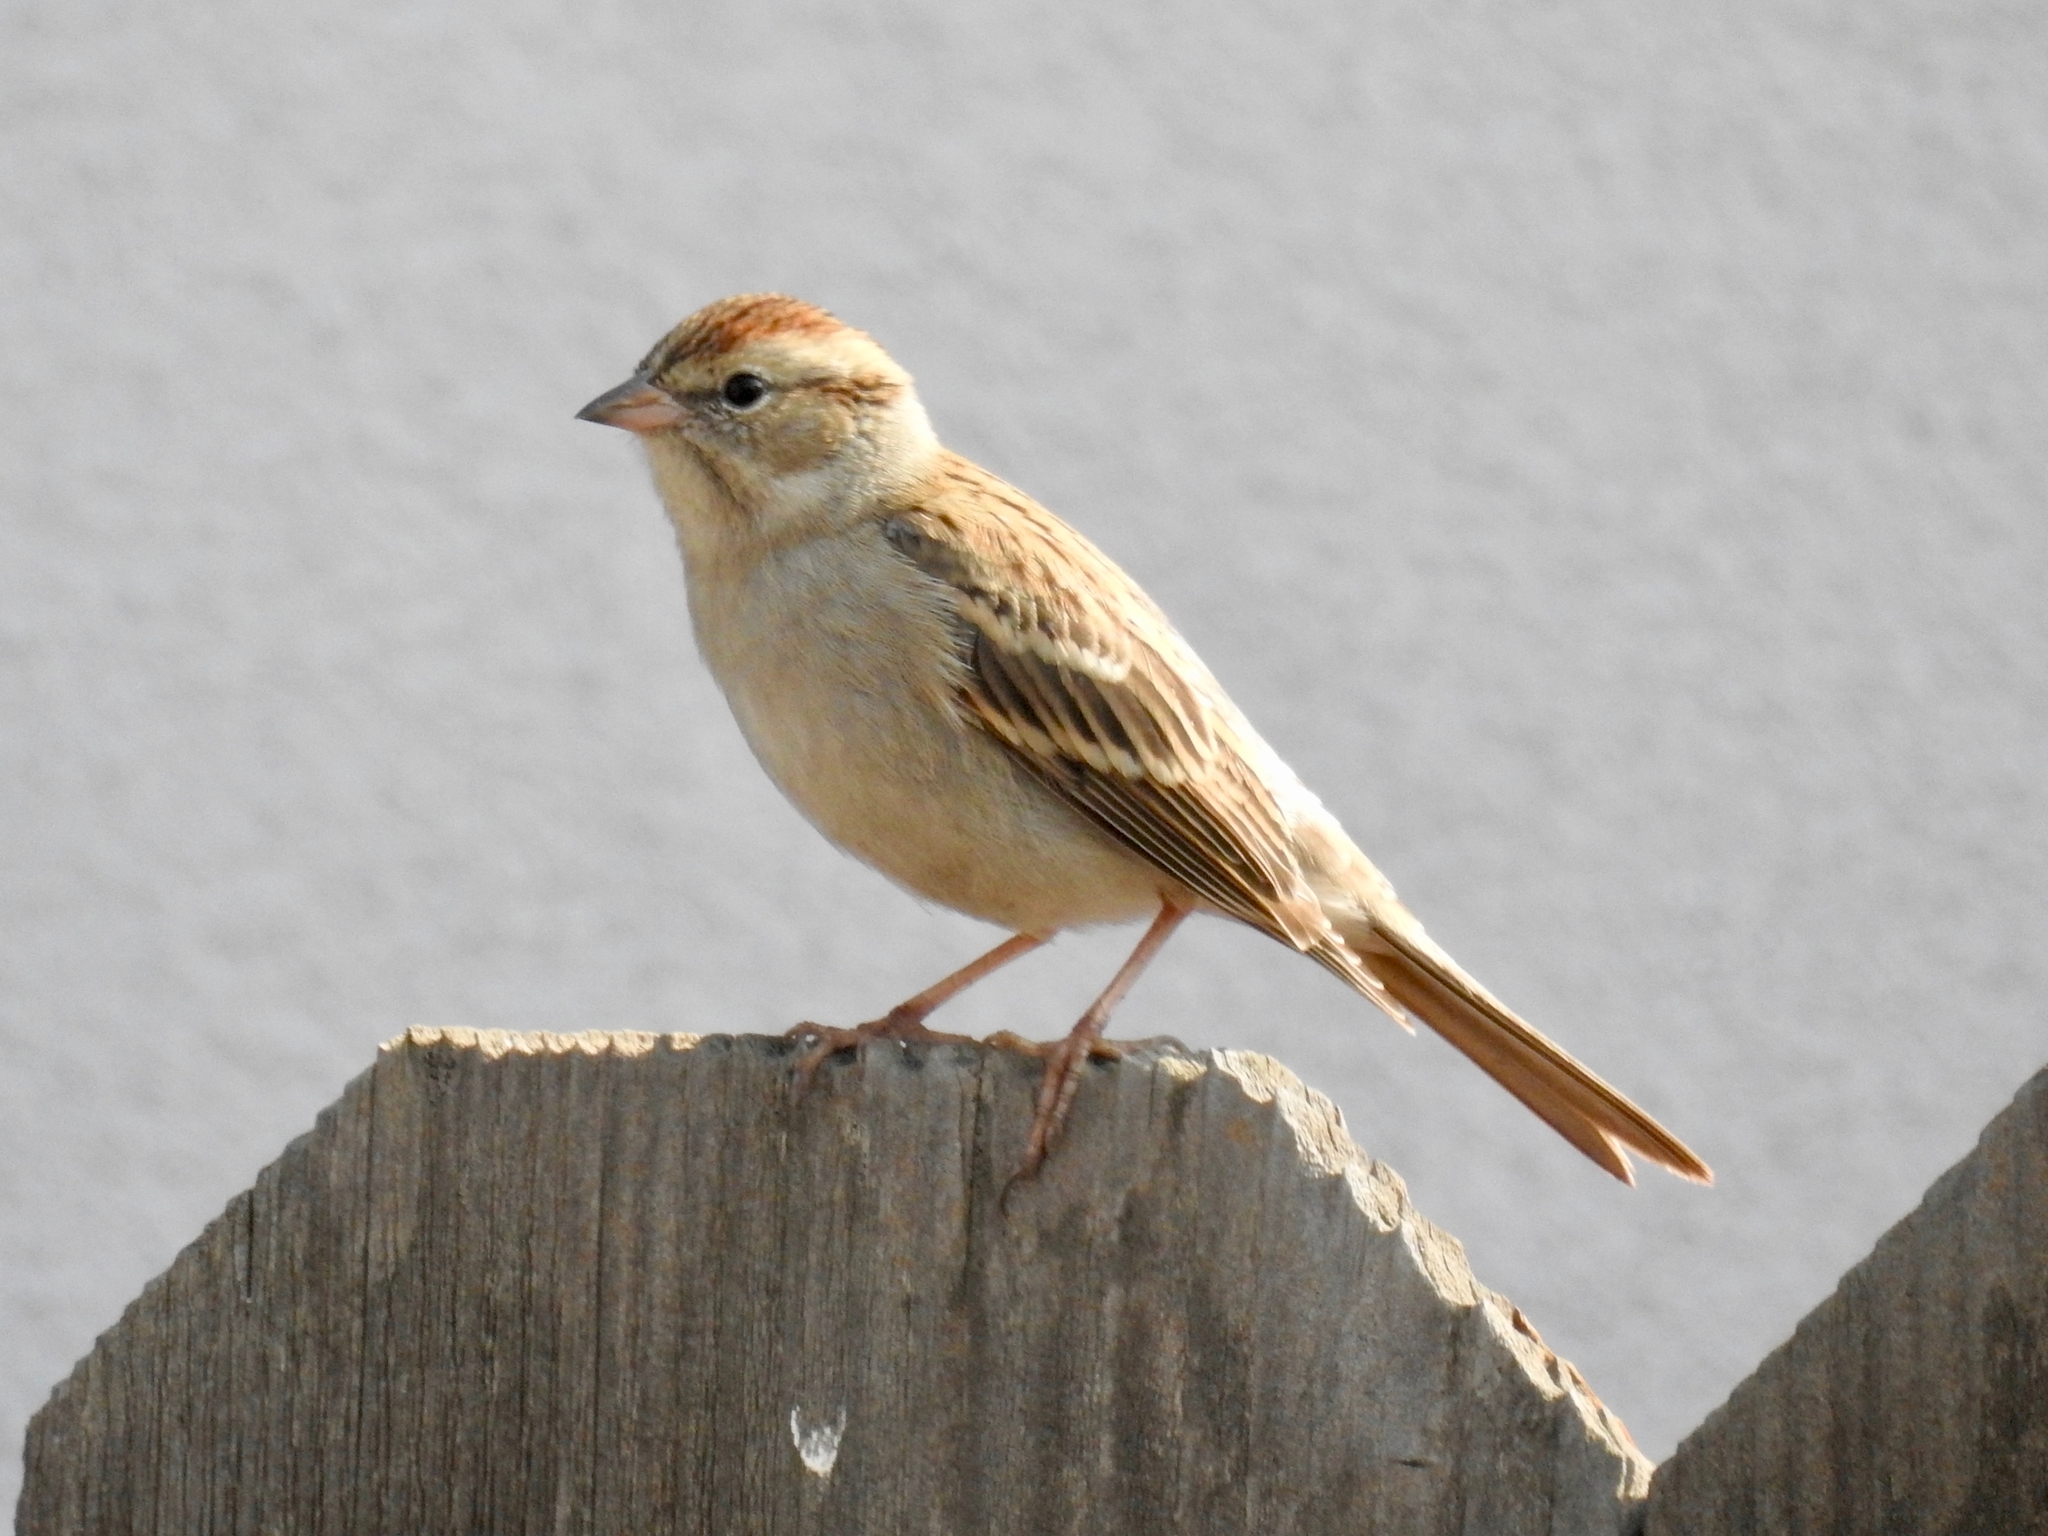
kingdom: Animalia
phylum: Chordata
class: Aves
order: Passeriformes
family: Passerellidae
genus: Spizella
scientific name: Spizella passerina
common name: Chipping sparrow
